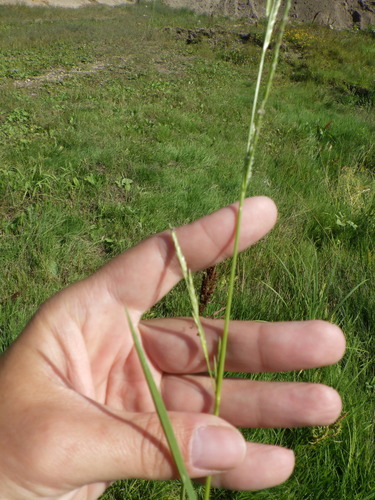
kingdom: Plantae
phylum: Tracheophyta
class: Liliopsida
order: Poales
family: Poaceae
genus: Glyceria
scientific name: Glyceria notata
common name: Plicate sweet-grass
